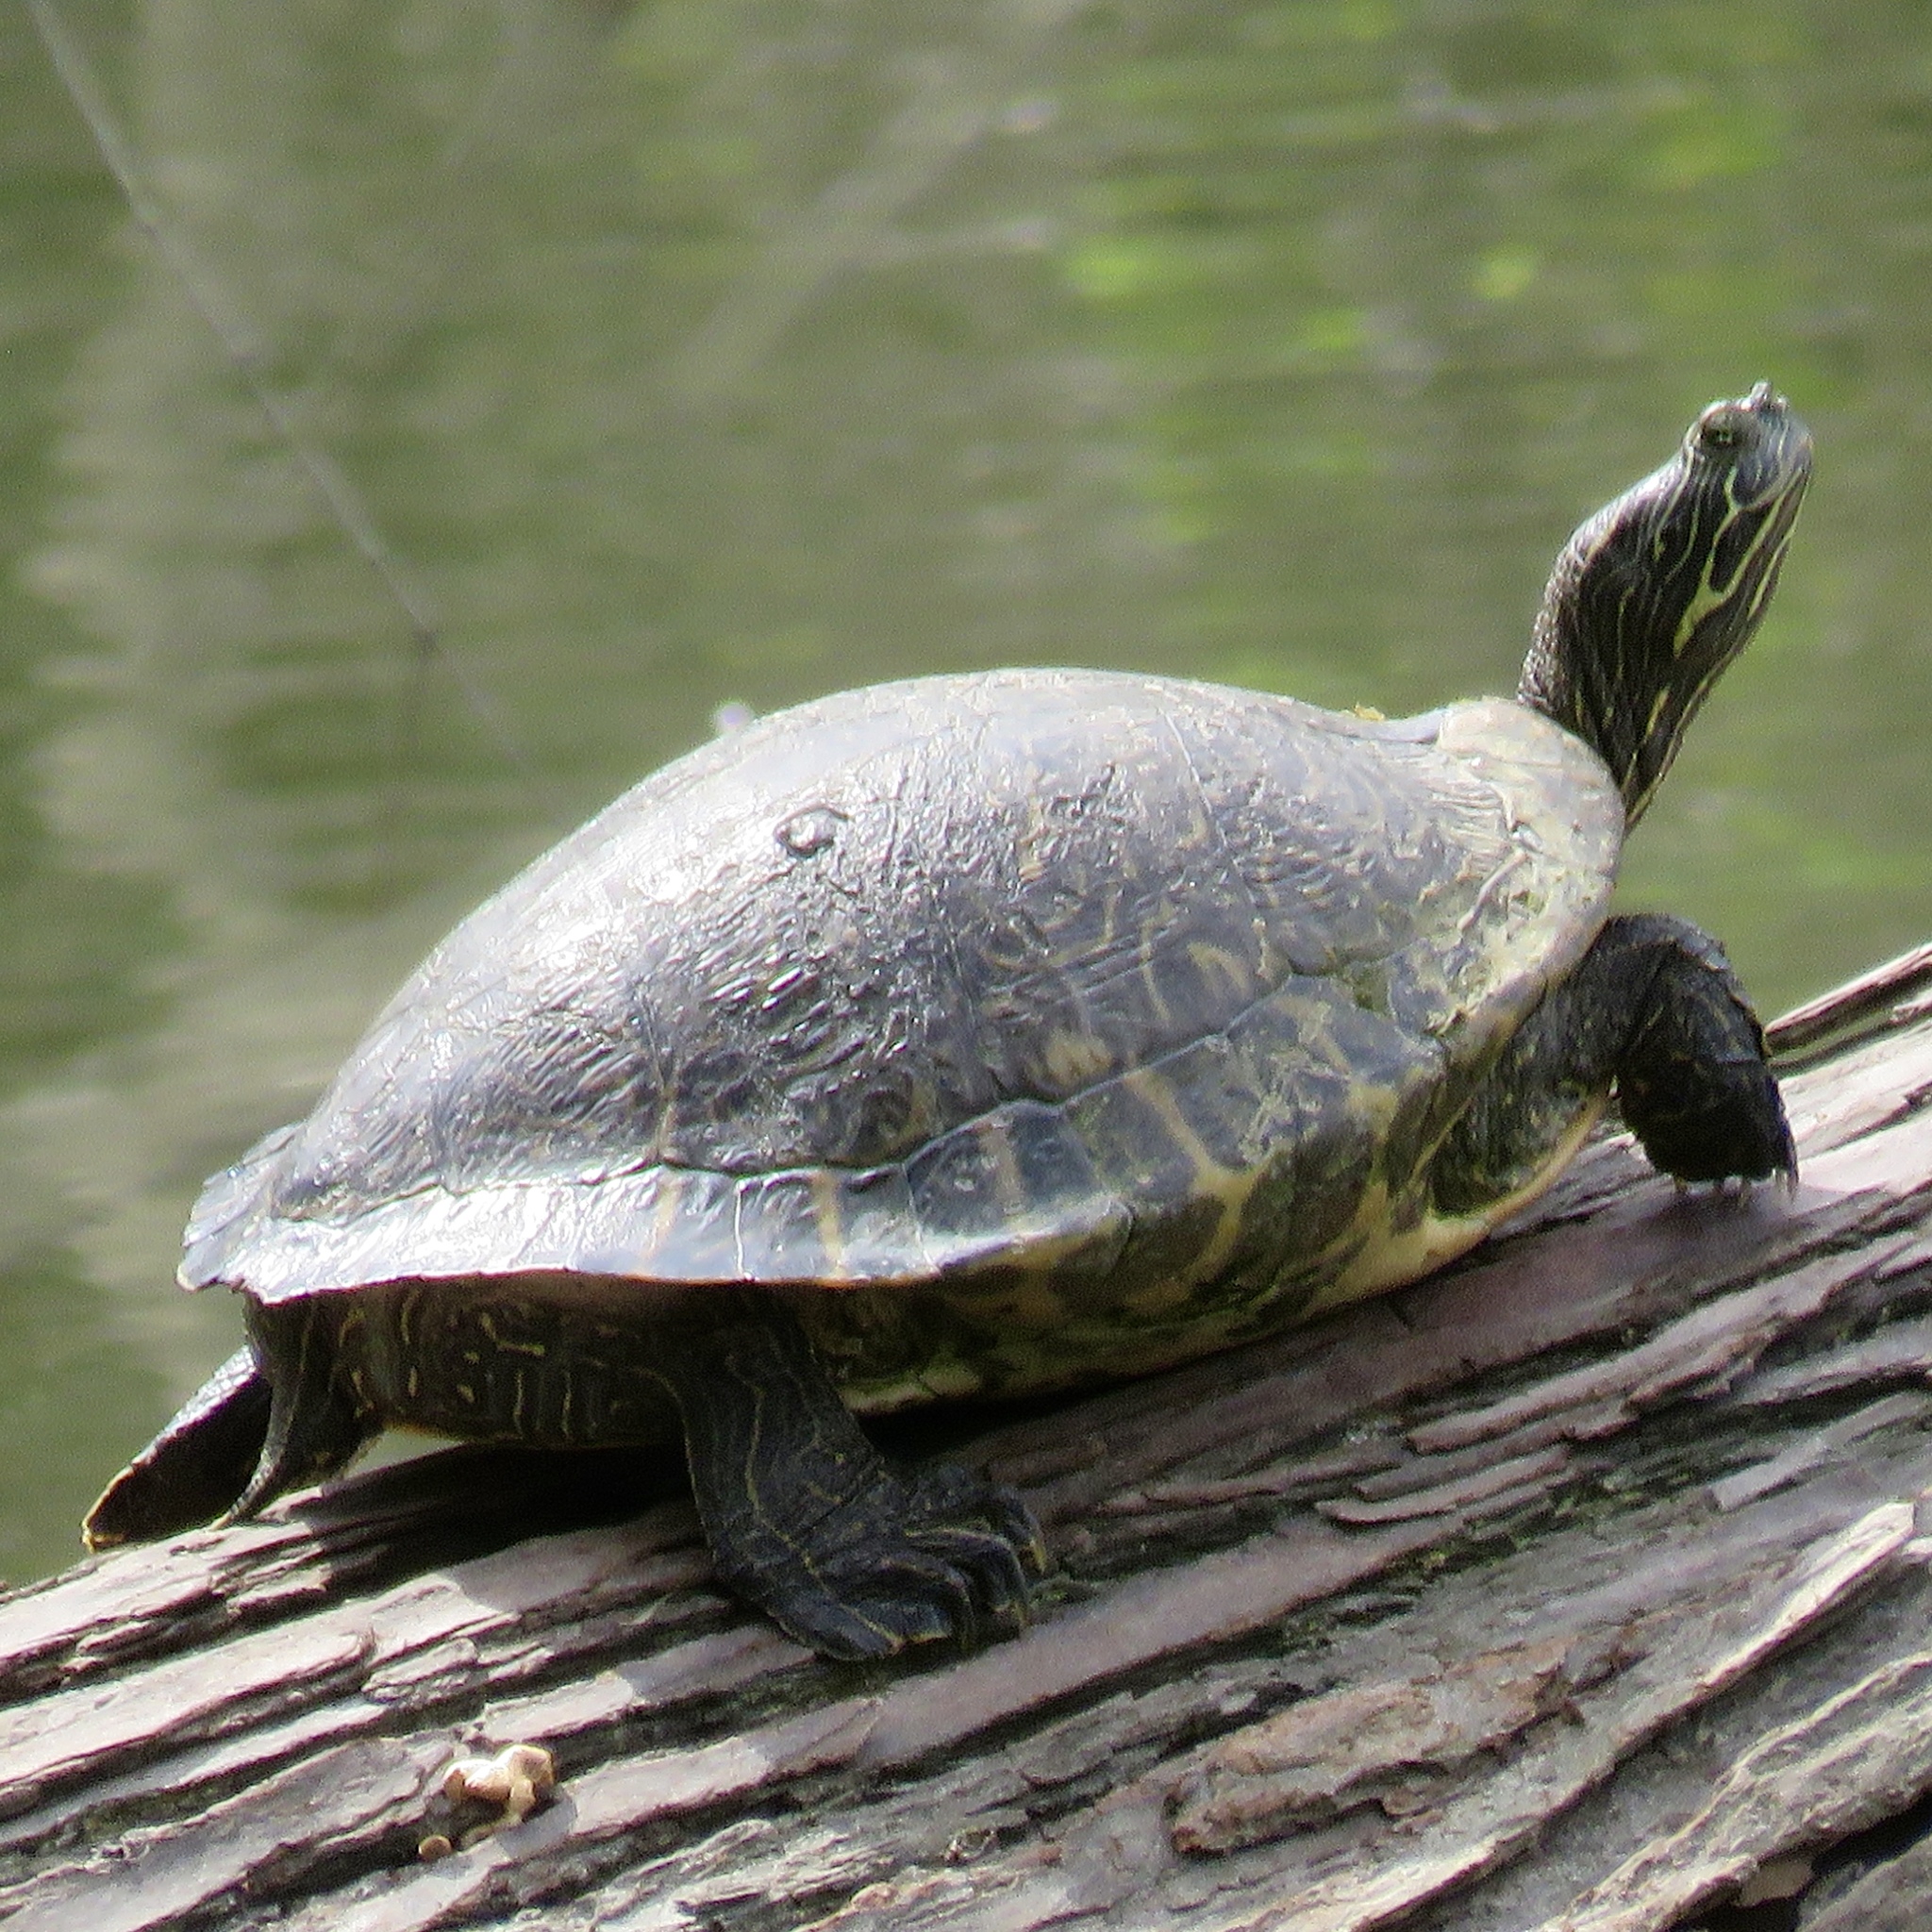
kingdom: Animalia
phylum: Chordata
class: Testudines
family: Emydidae
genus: Pseudemys
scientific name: Pseudemys concinna
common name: Eastern river cooter
